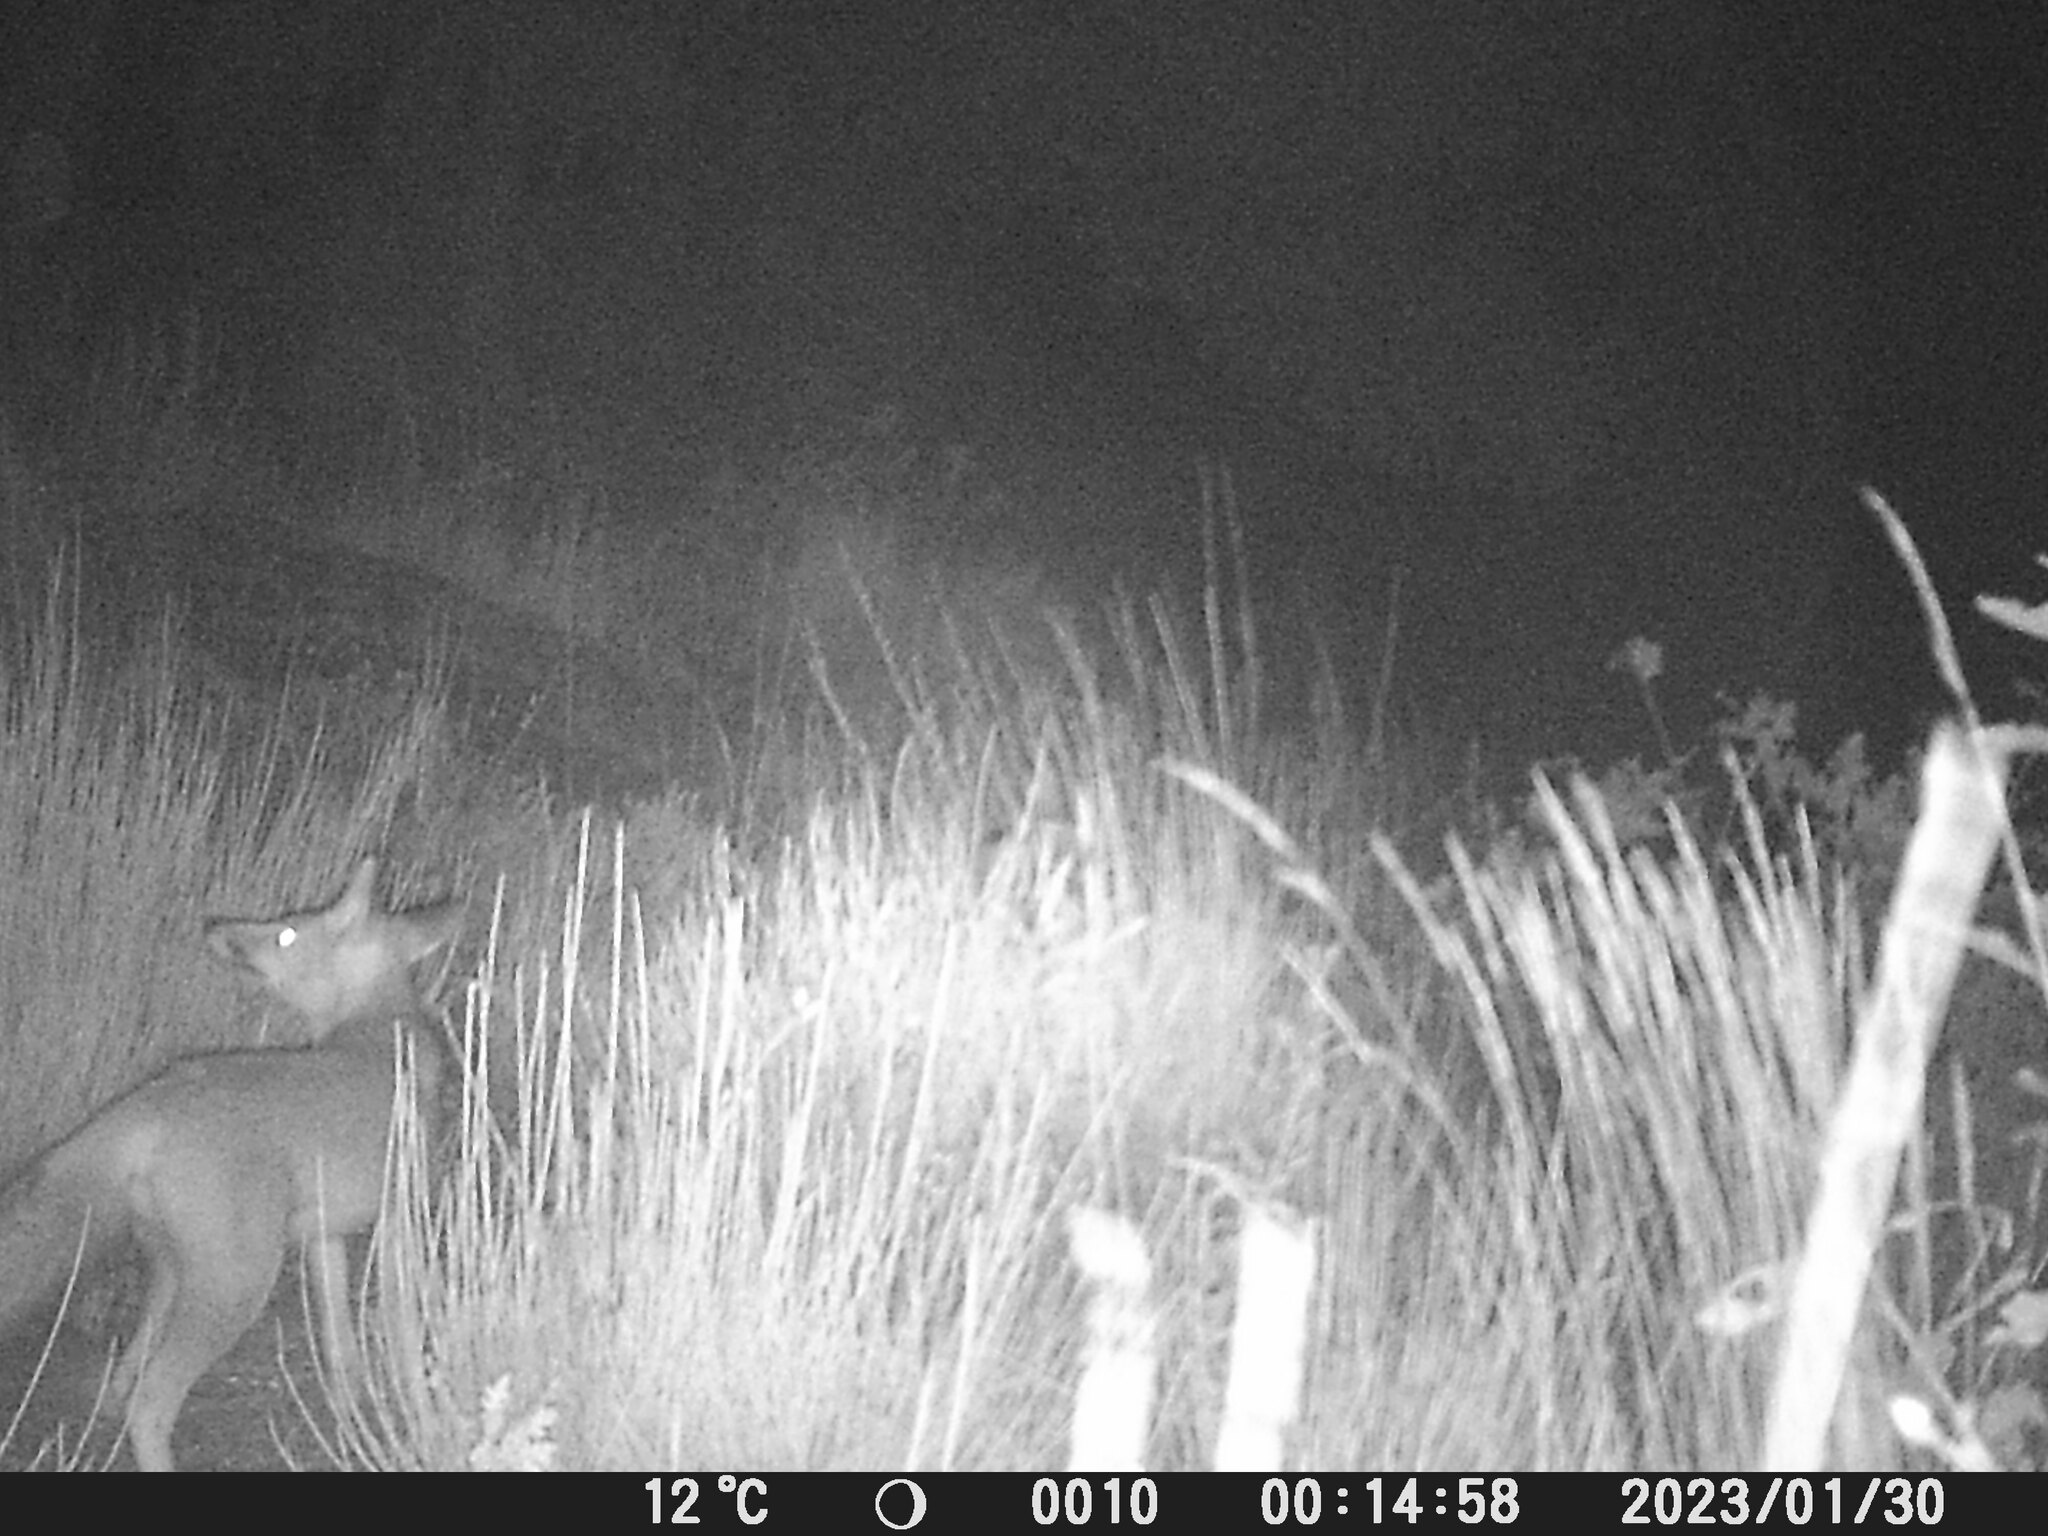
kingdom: Animalia
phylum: Chordata
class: Mammalia
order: Carnivora
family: Canidae
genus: Vulpes
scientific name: Vulpes vulpes
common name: Red fox
